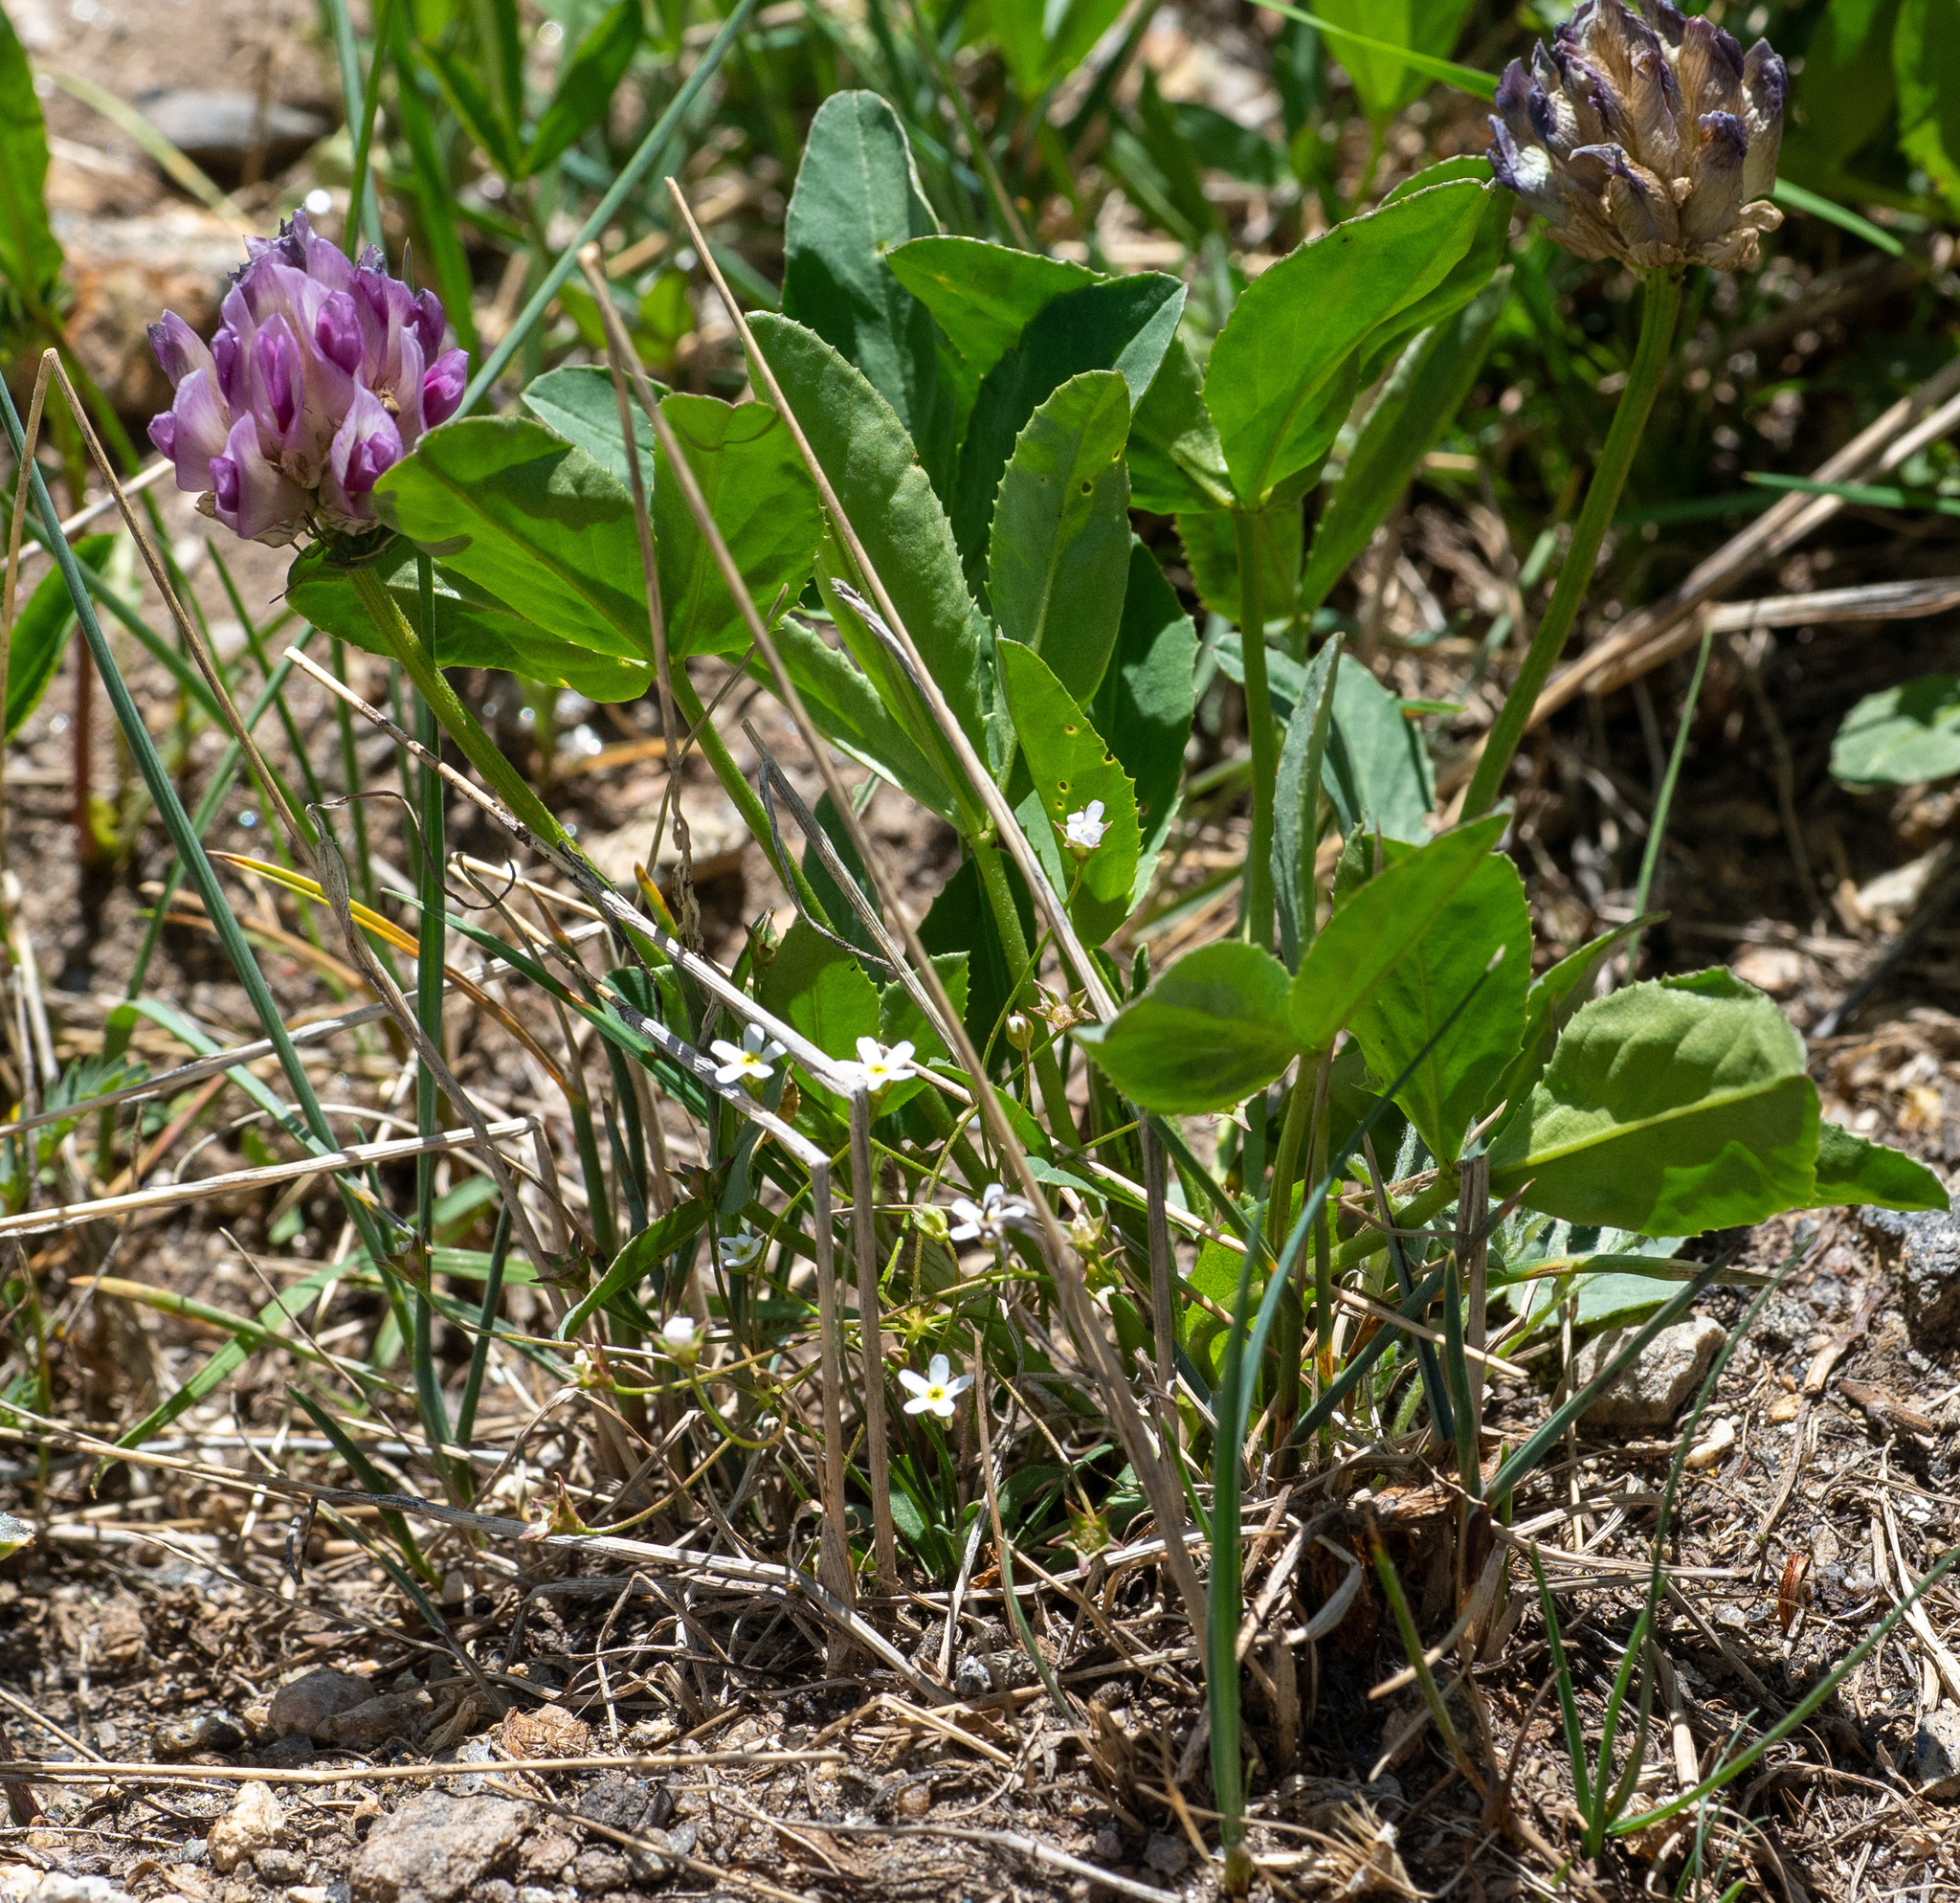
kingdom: Plantae
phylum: Tracheophyta
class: Magnoliopsida
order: Fabales
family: Fabaceae
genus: Trifolium
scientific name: Trifolium parryi
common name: Parry's clover
